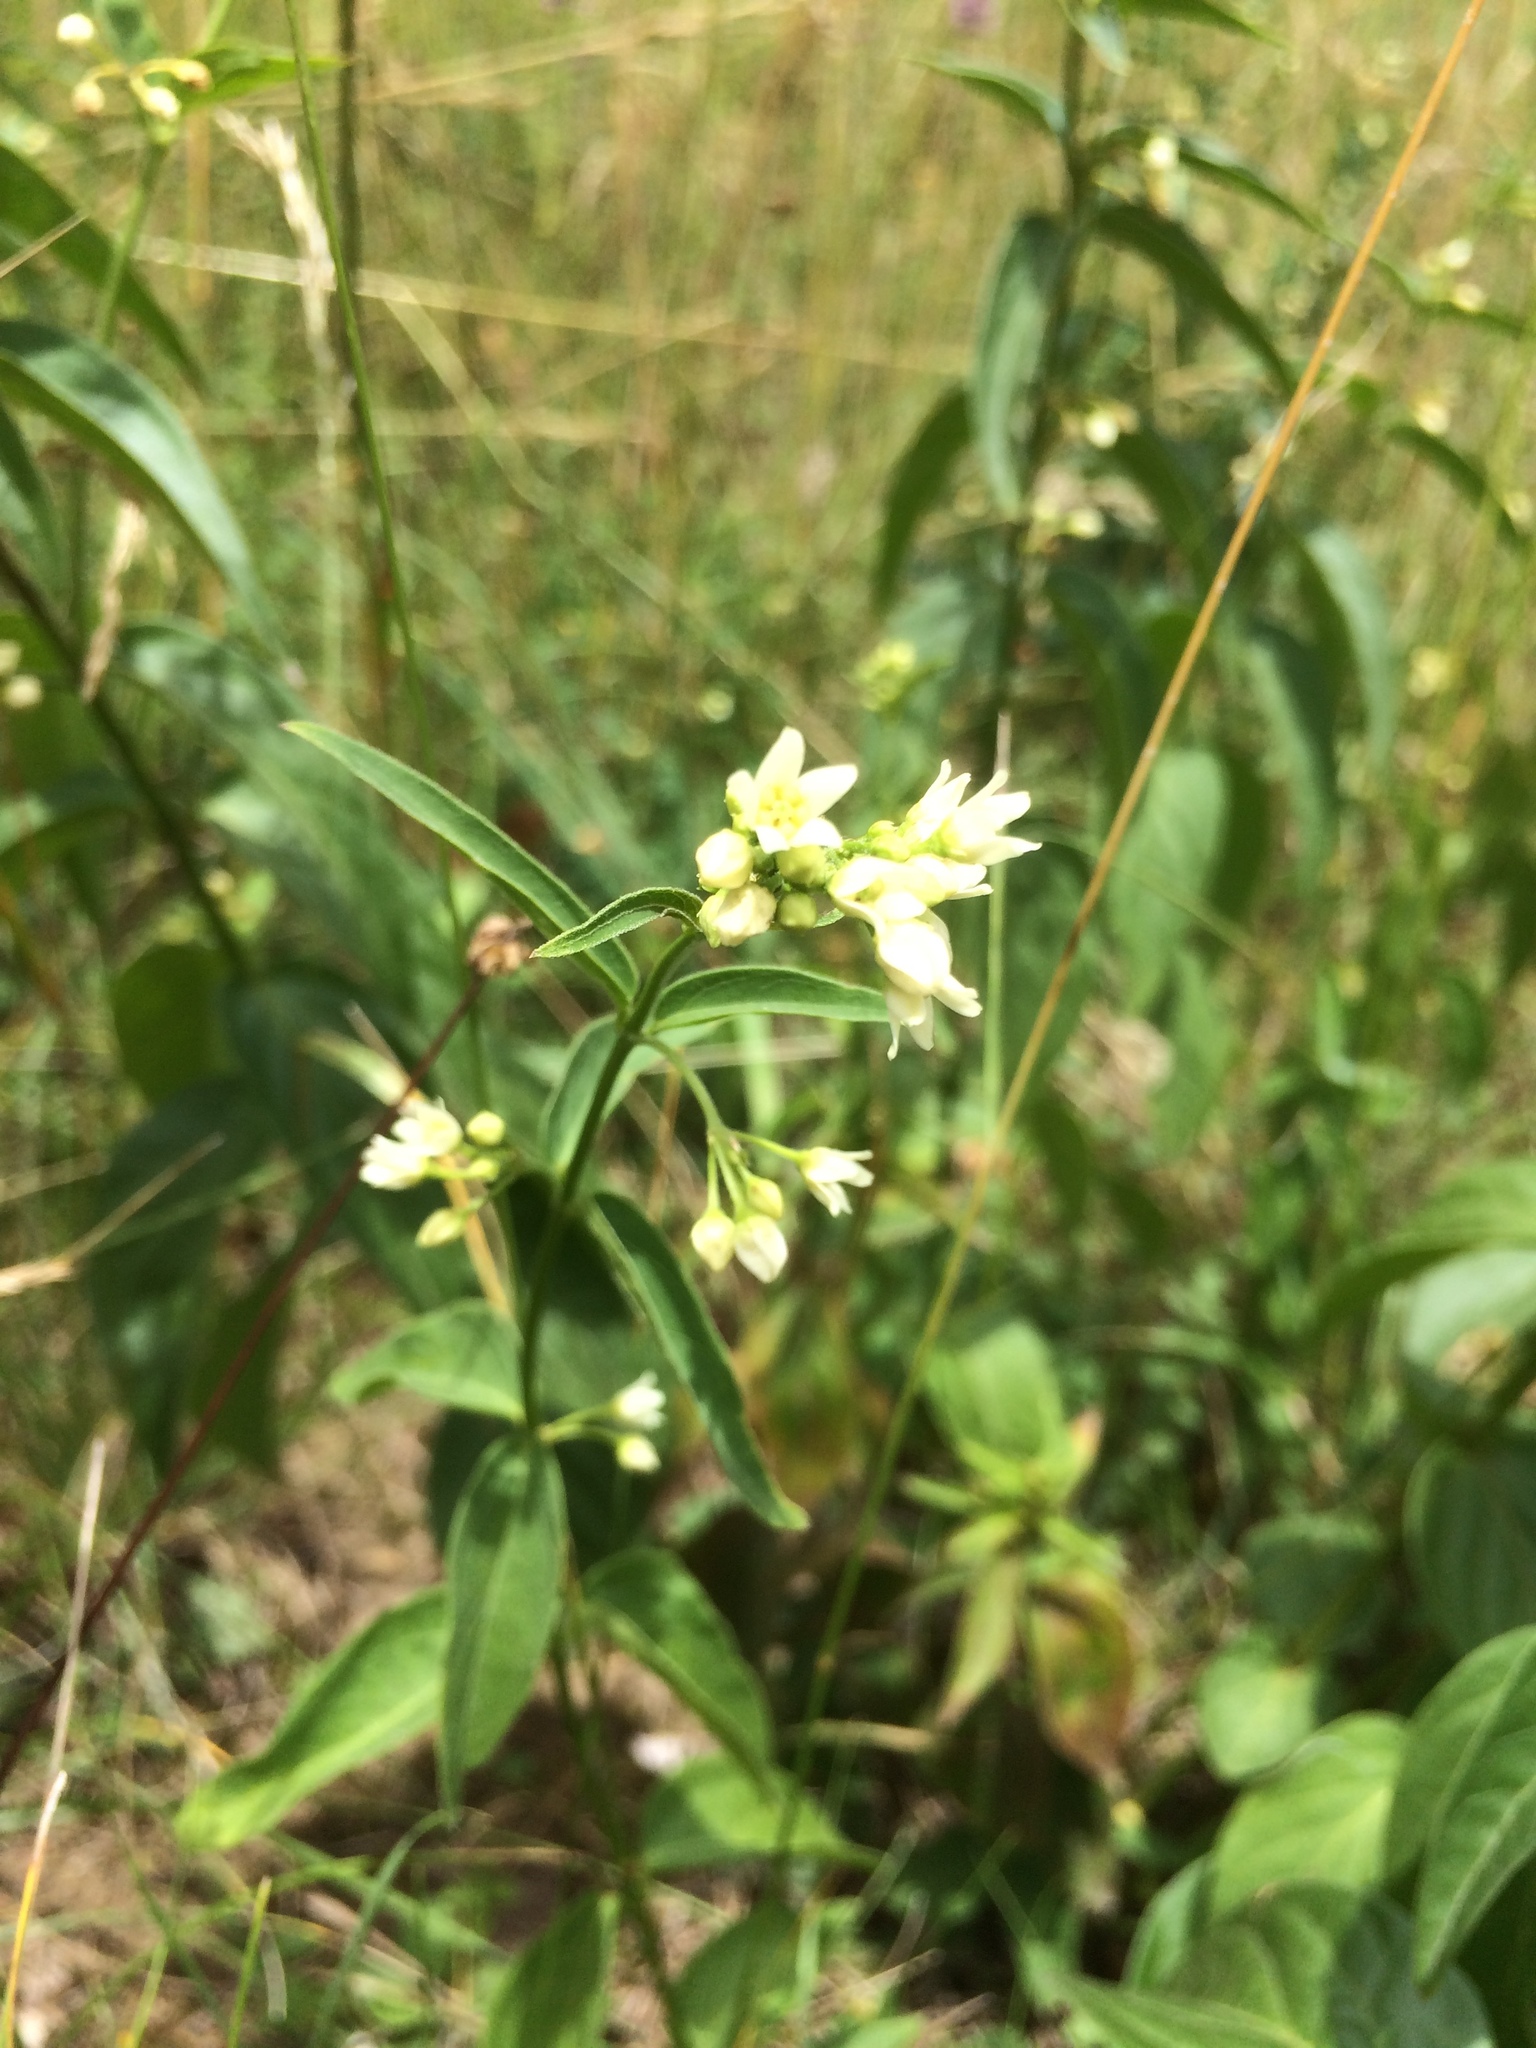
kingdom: Plantae
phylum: Tracheophyta
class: Magnoliopsida
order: Gentianales
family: Apocynaceae
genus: Vincetoxicum
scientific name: Vincetoxicum hirundinaria
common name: White swallowwort
